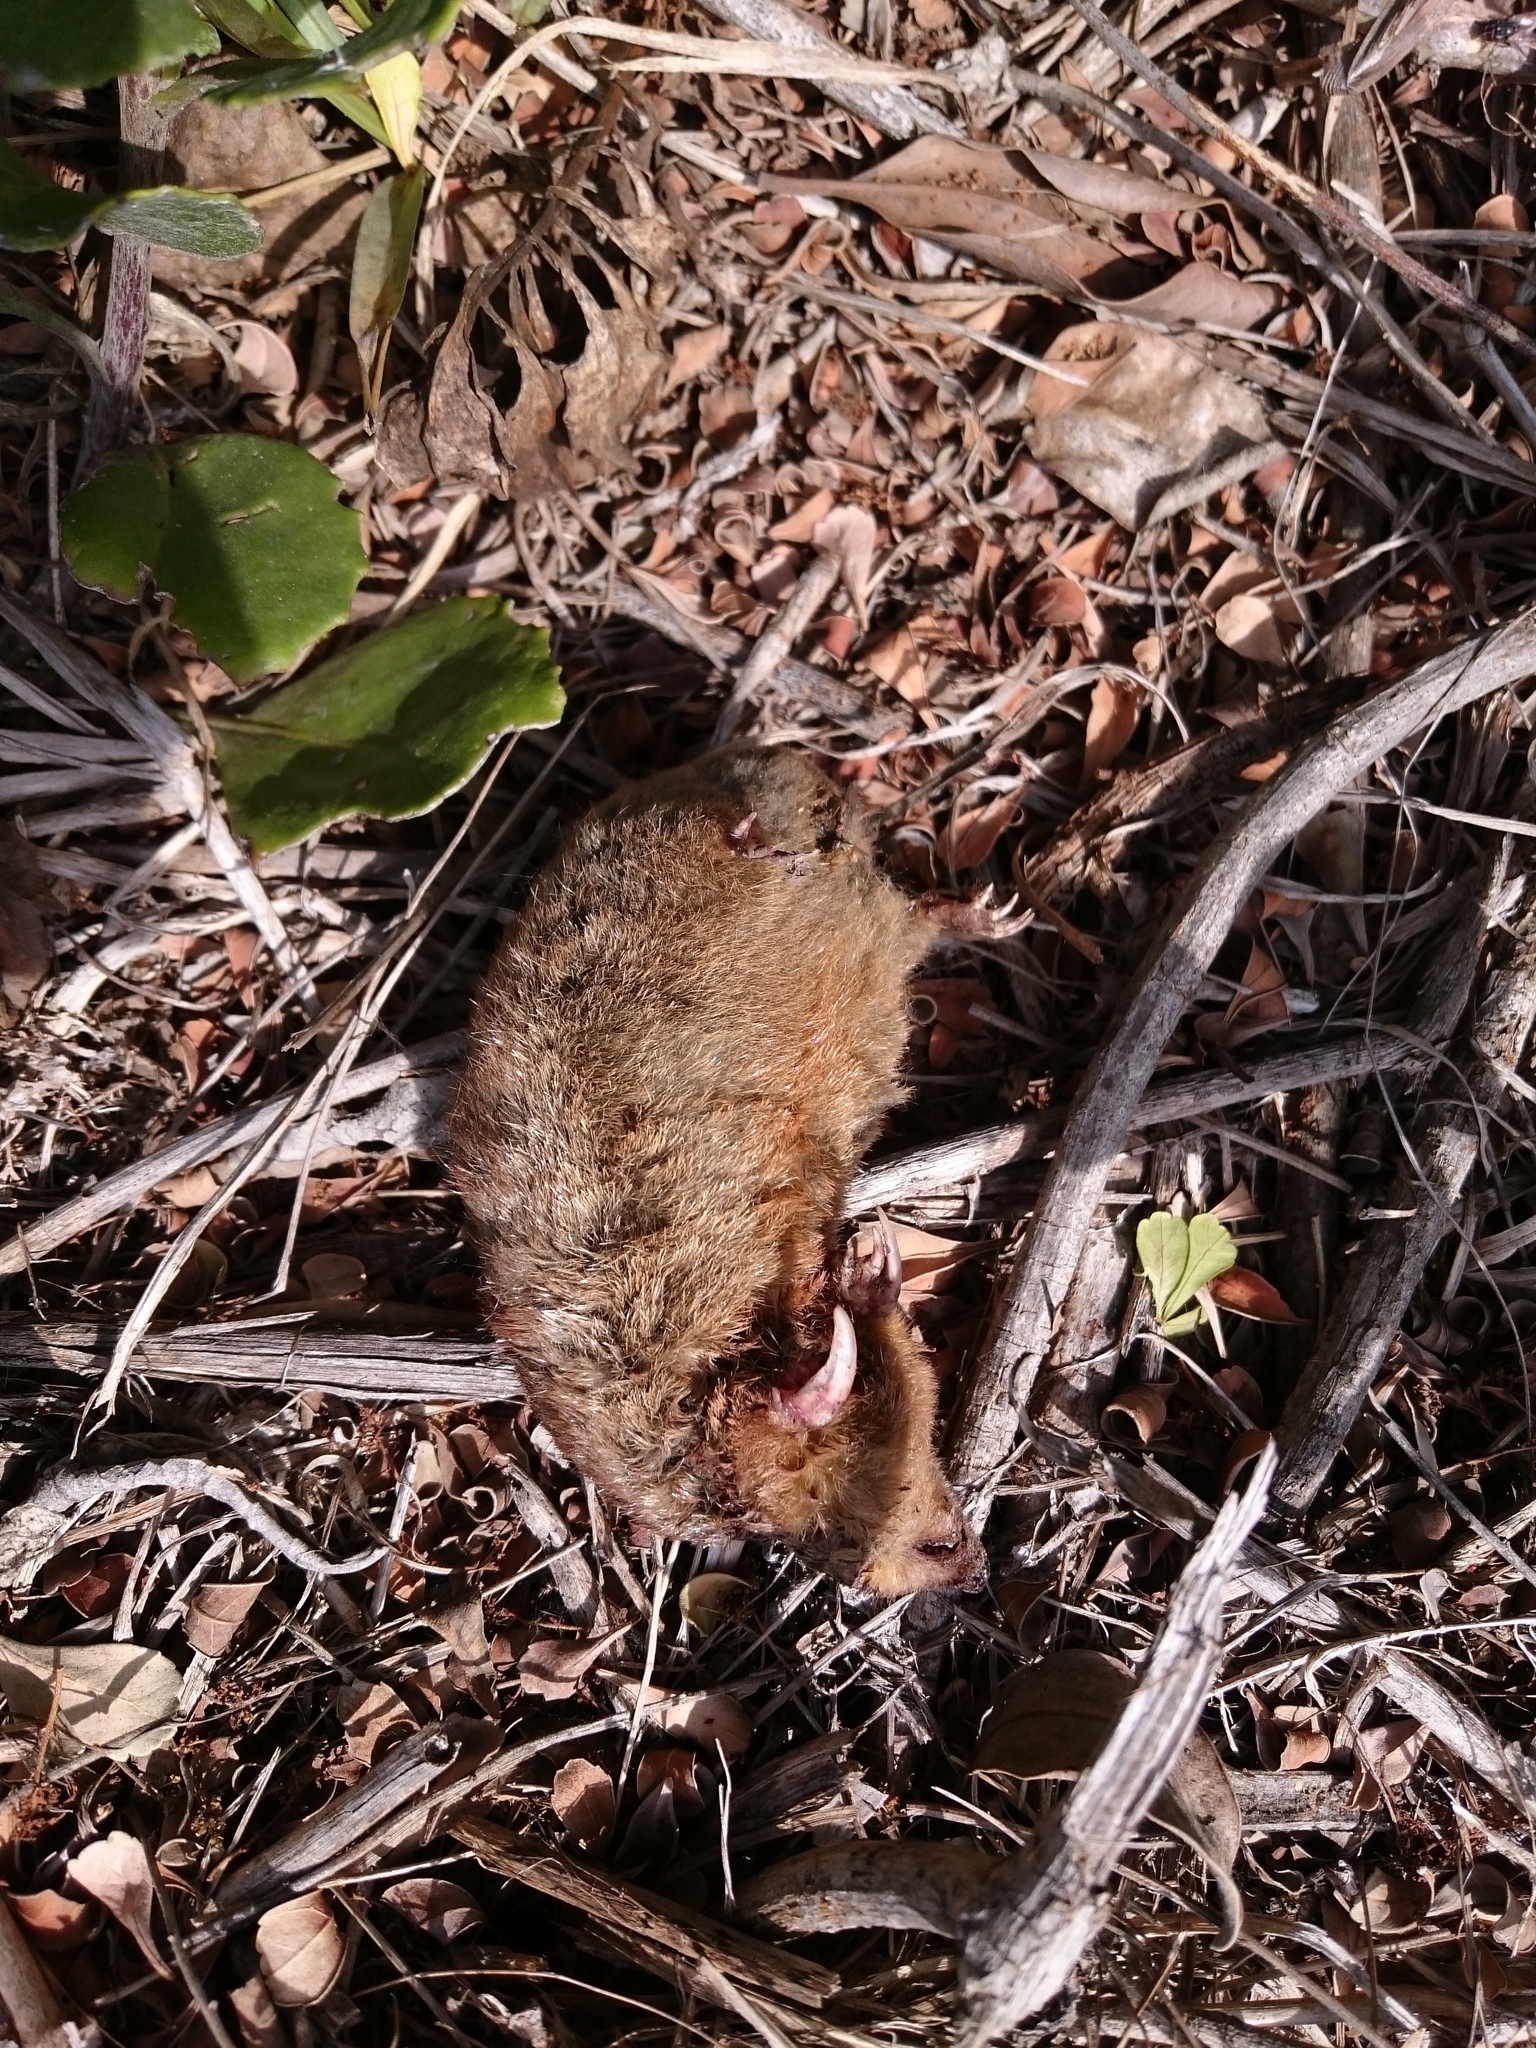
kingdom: Animalia
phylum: Chordata
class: Mammalia
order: Afrosoricida
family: Chrysochloridae
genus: Amblysomus
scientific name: Amblysomus hottentotus
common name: Hottentot golden mole
